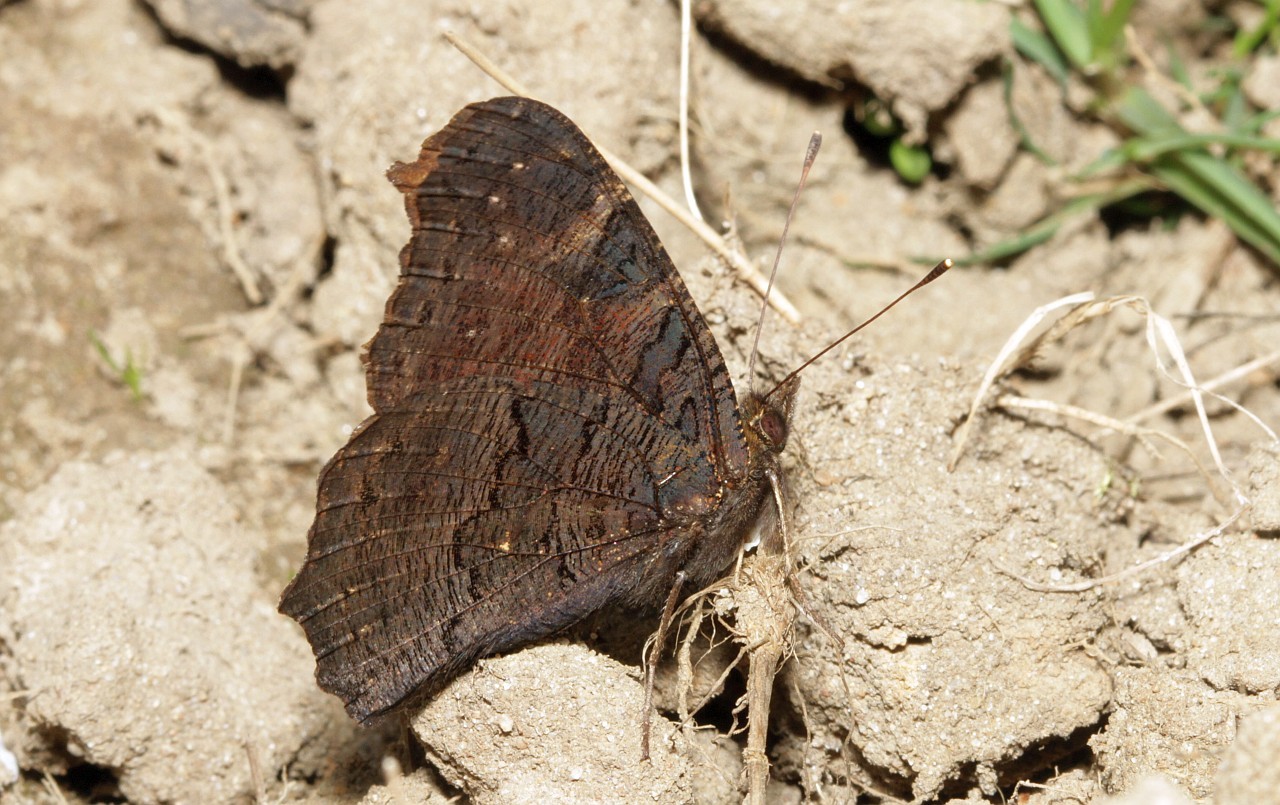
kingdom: Animalia
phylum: Arthropoda
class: Insecta
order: Lepidoptera
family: Nymphalidae
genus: Aglais
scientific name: Aglais io
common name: Peacock
